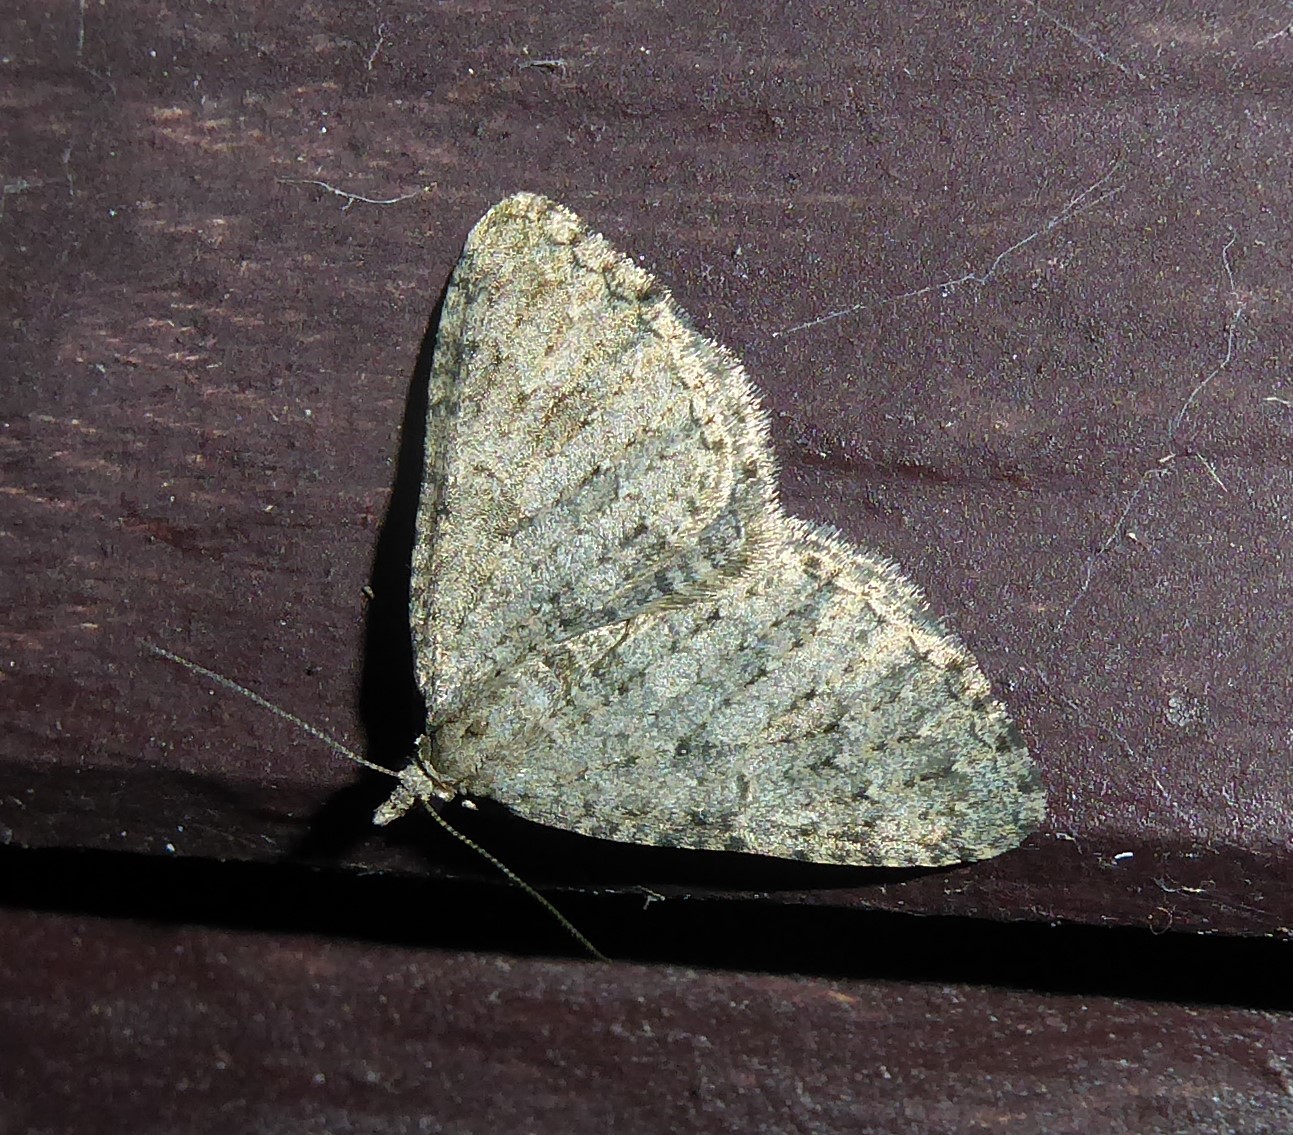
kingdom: Animalia
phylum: Arthropoda
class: Insecta
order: Lepidoptera
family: Geometridae
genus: Helastia
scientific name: Helastia corcularia
